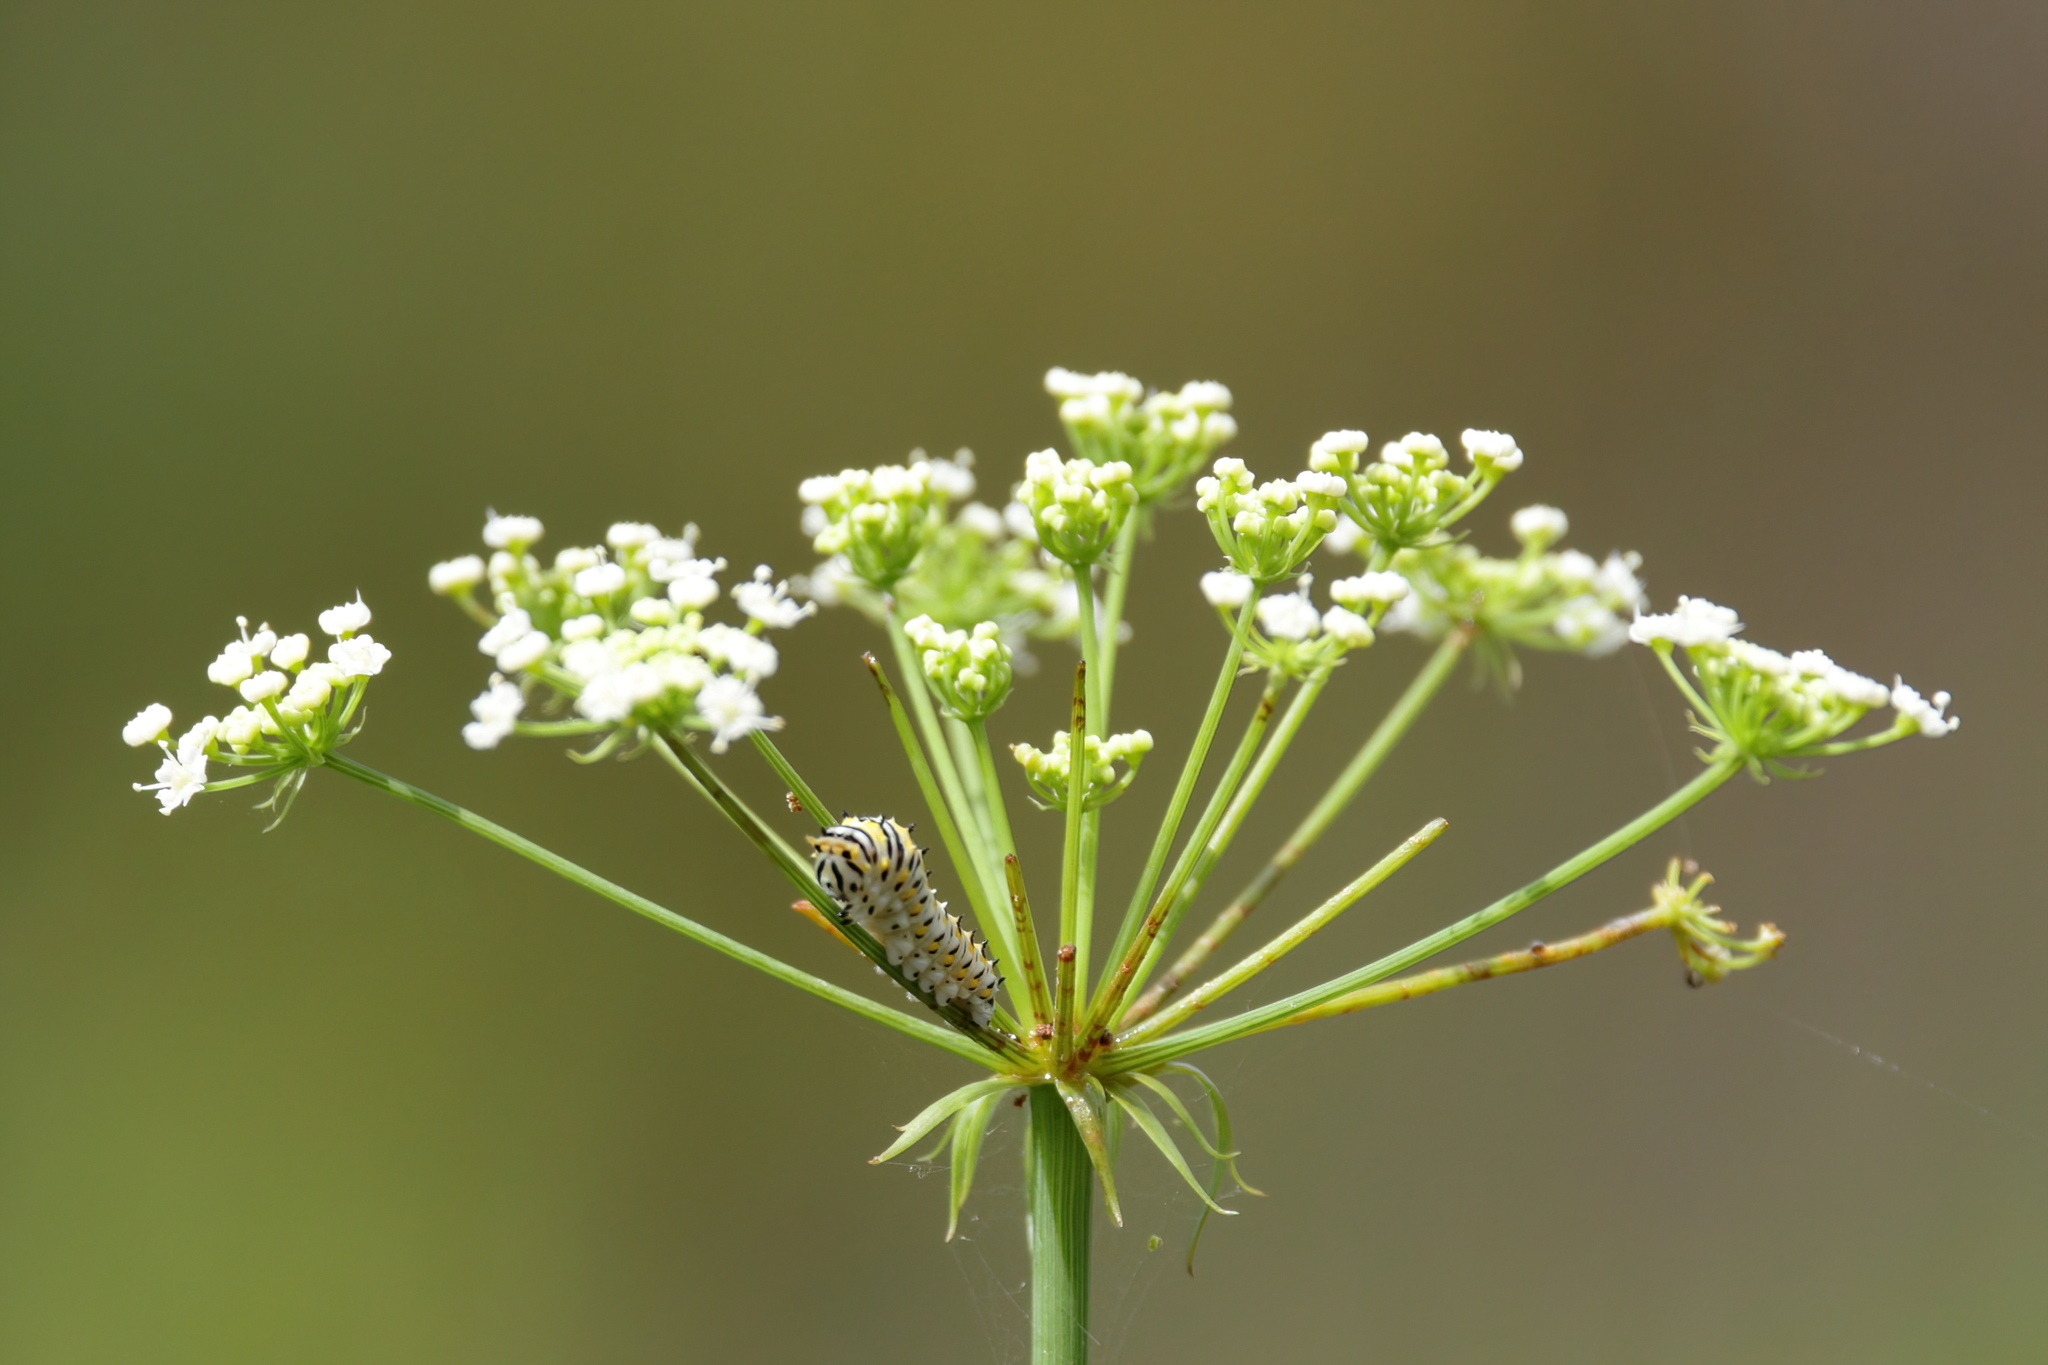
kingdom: Animalia
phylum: Arthropoda
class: Insecta
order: Lepidoptera
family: Papilionidae
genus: Papilio
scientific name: Papilio polyxenes
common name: Black swallowtail
